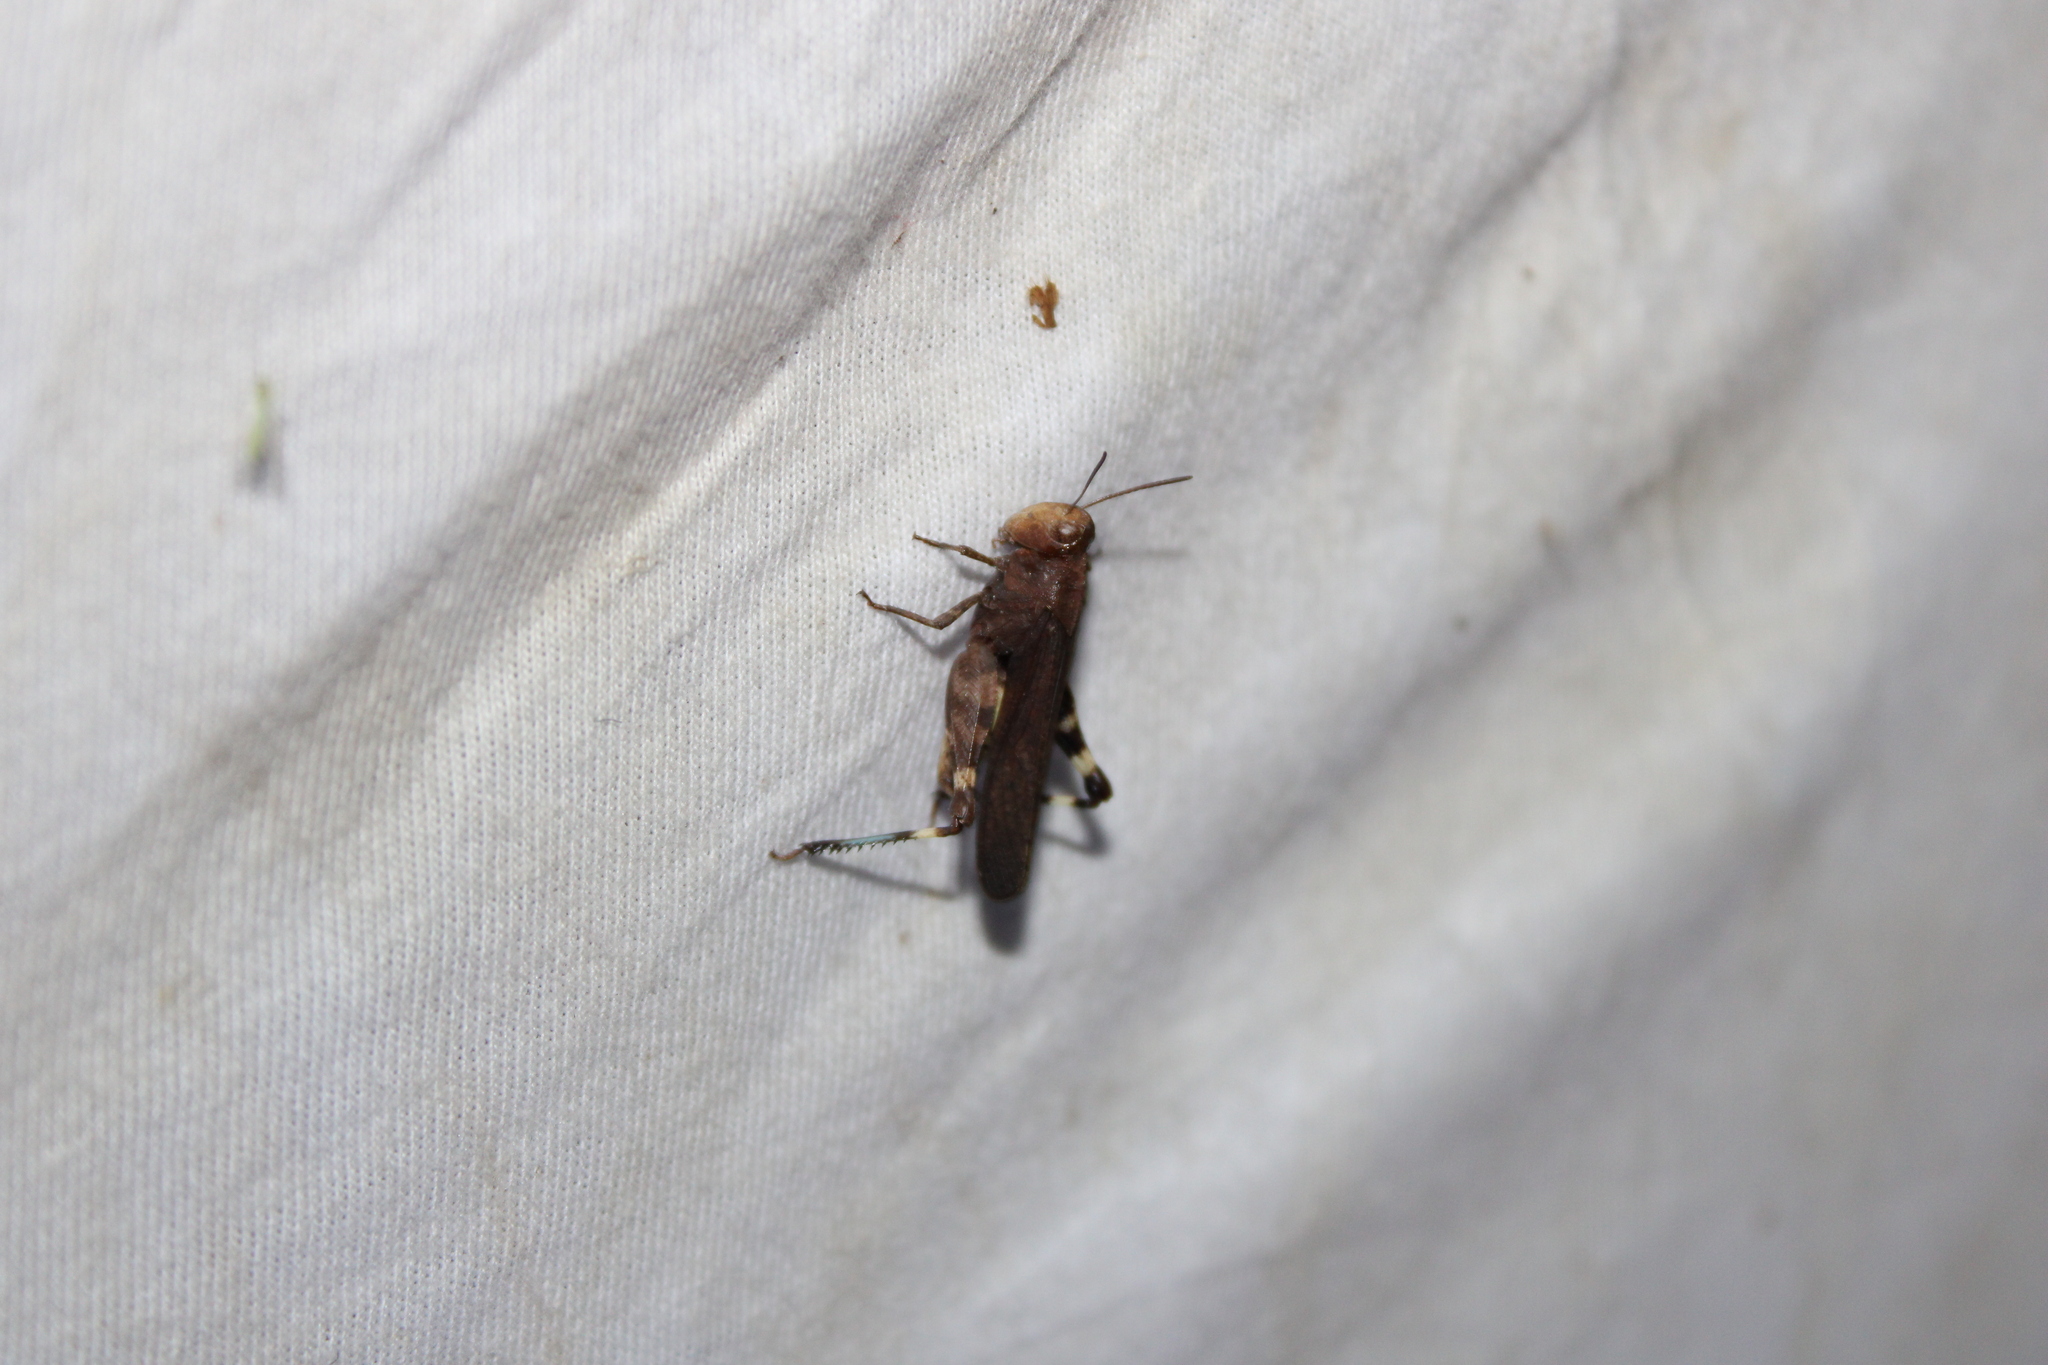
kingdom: Animalia
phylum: Arthropoda
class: Insecta
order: Orthoptera
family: Acrididae
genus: Arphia
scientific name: Arphia sulphurea
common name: Spring yellow-winged locust
